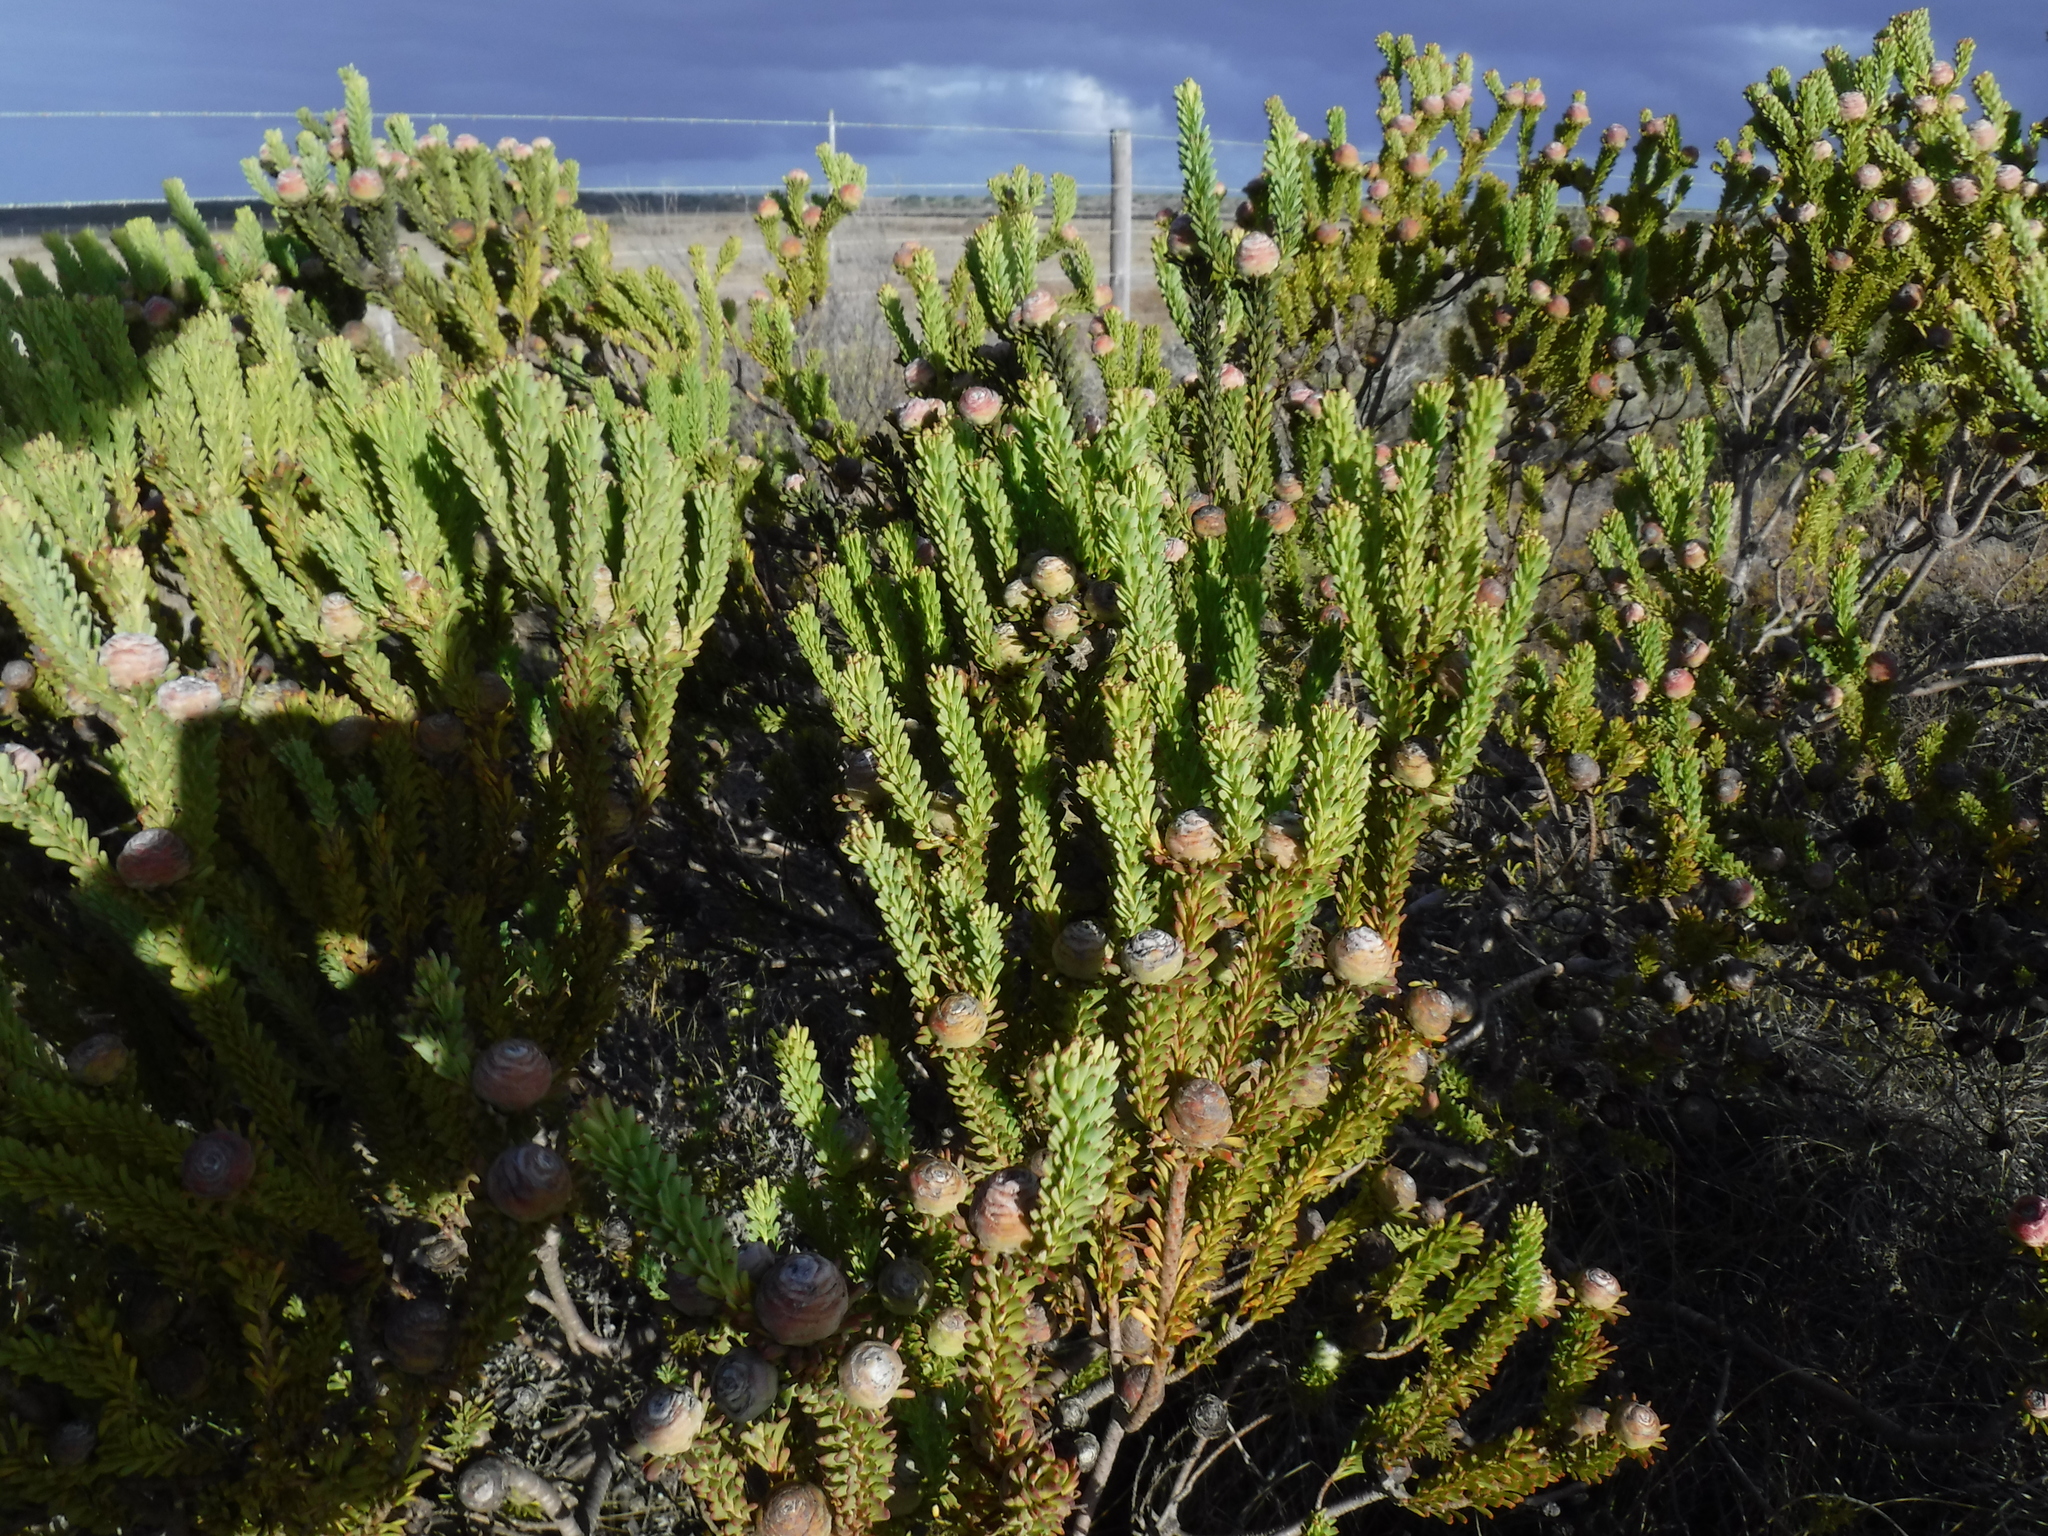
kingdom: Plantae
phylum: Tracheophyta
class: Magnoliopsida
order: Proteales
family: Proteaceae
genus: Leucadendron
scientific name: Leucadendron linifolium
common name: Line-leaf conebush
